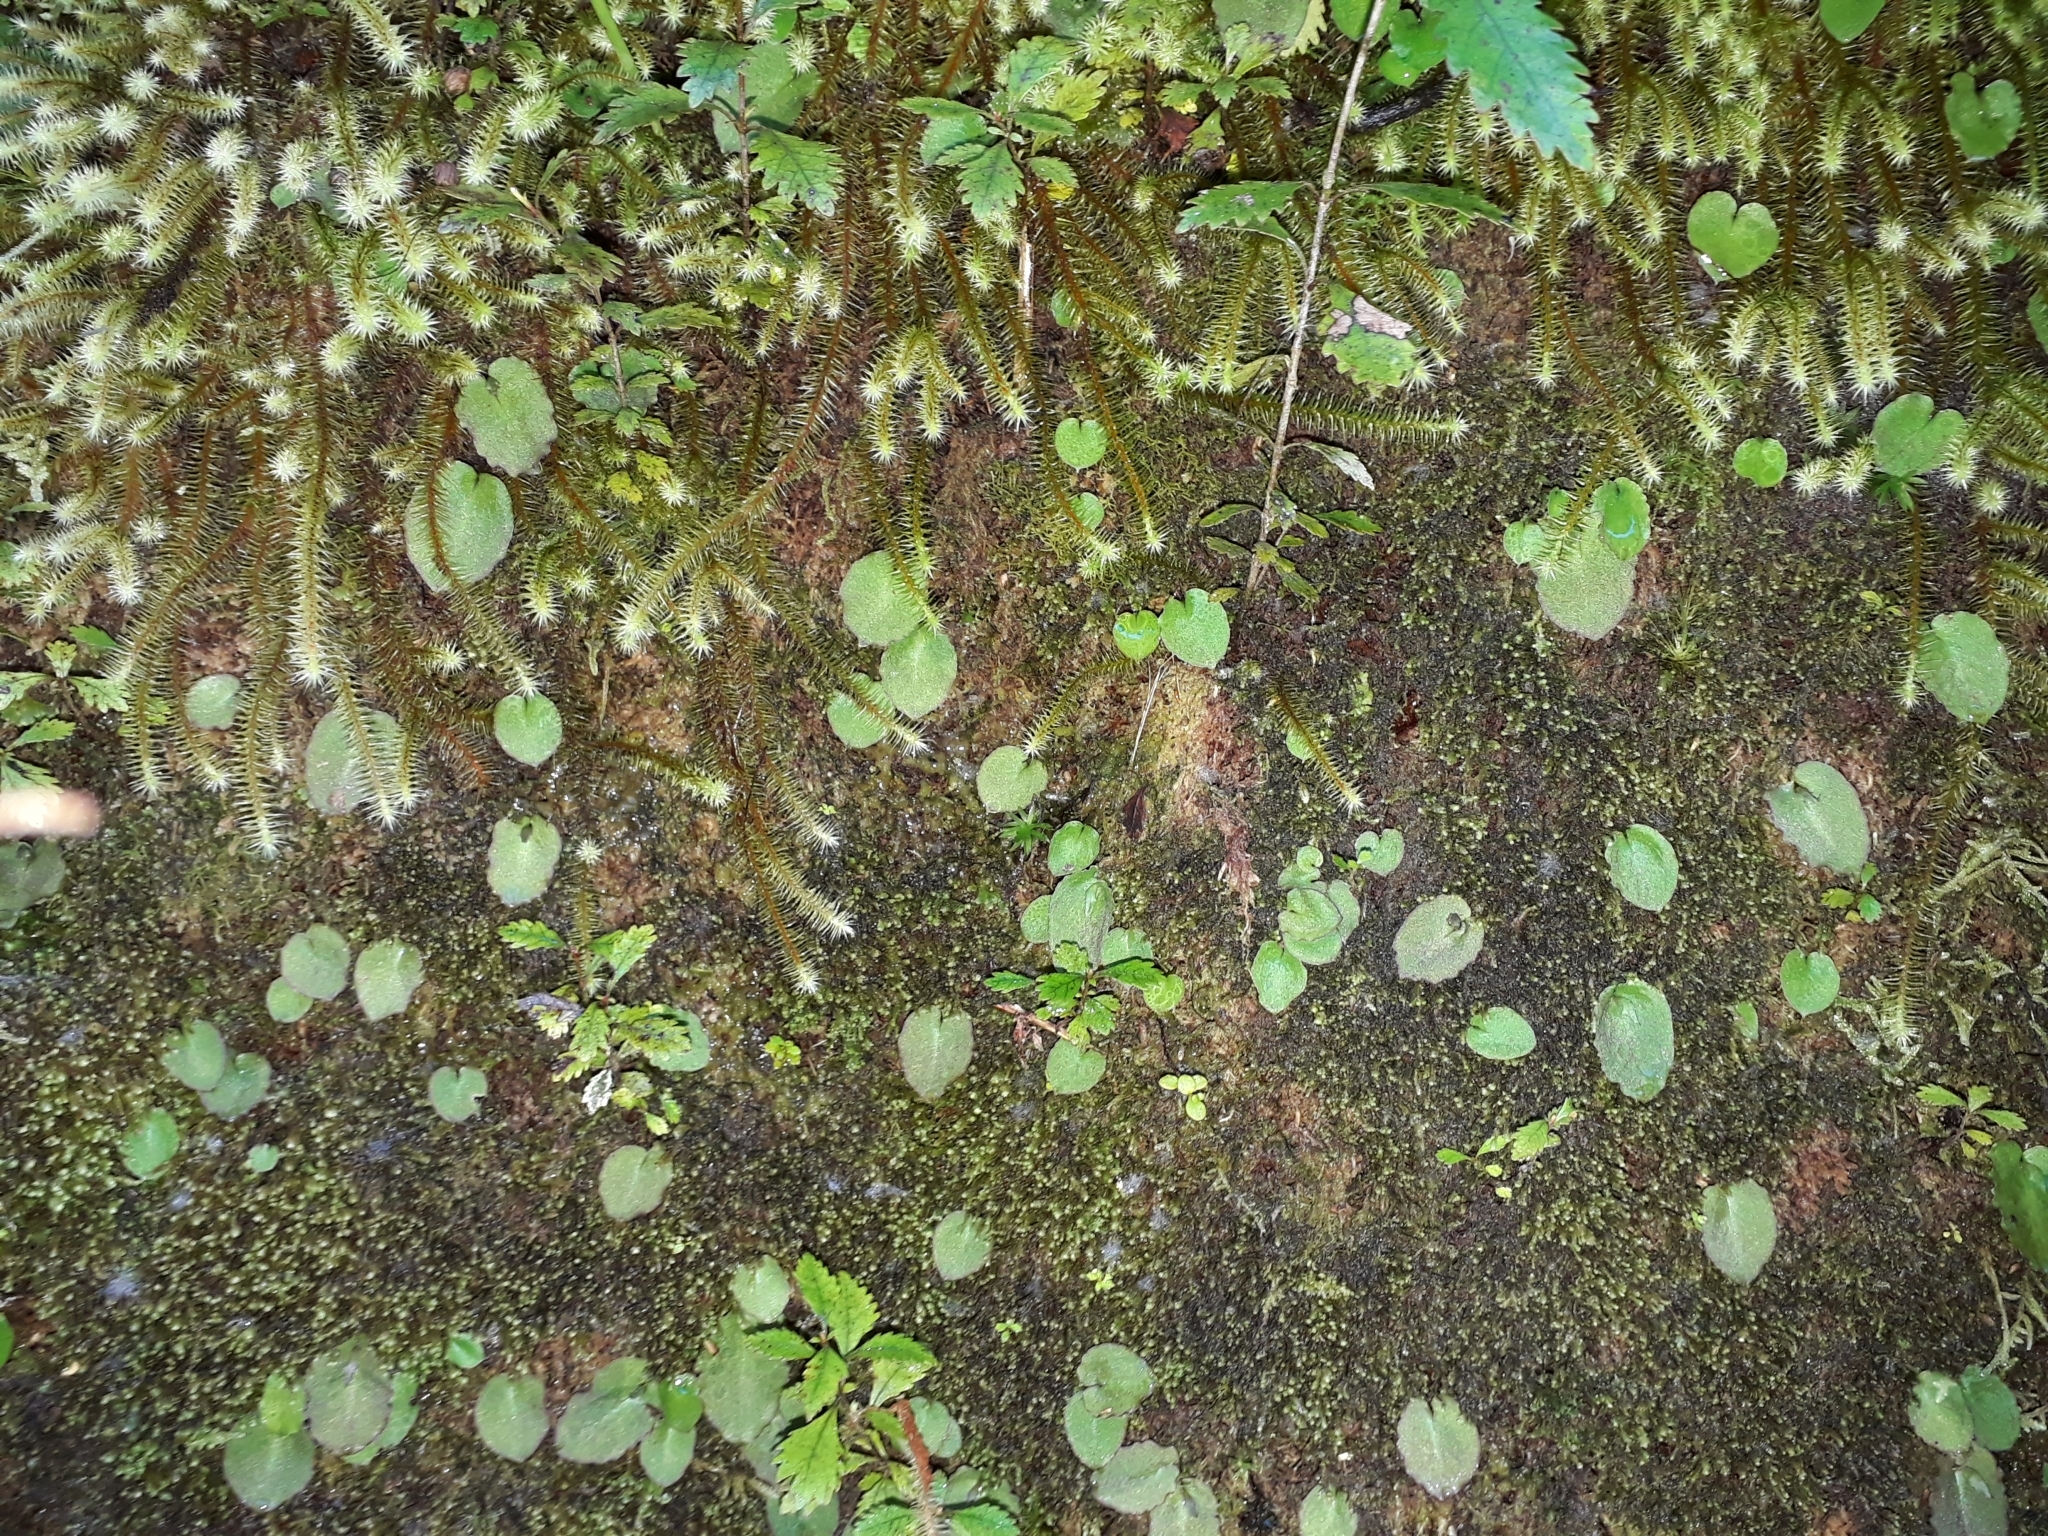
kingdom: Plantae
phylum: Tracheophyta
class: Liliopsida
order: Asparagales
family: Orchidaceae
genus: Corybas
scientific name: Corybas oblongus
